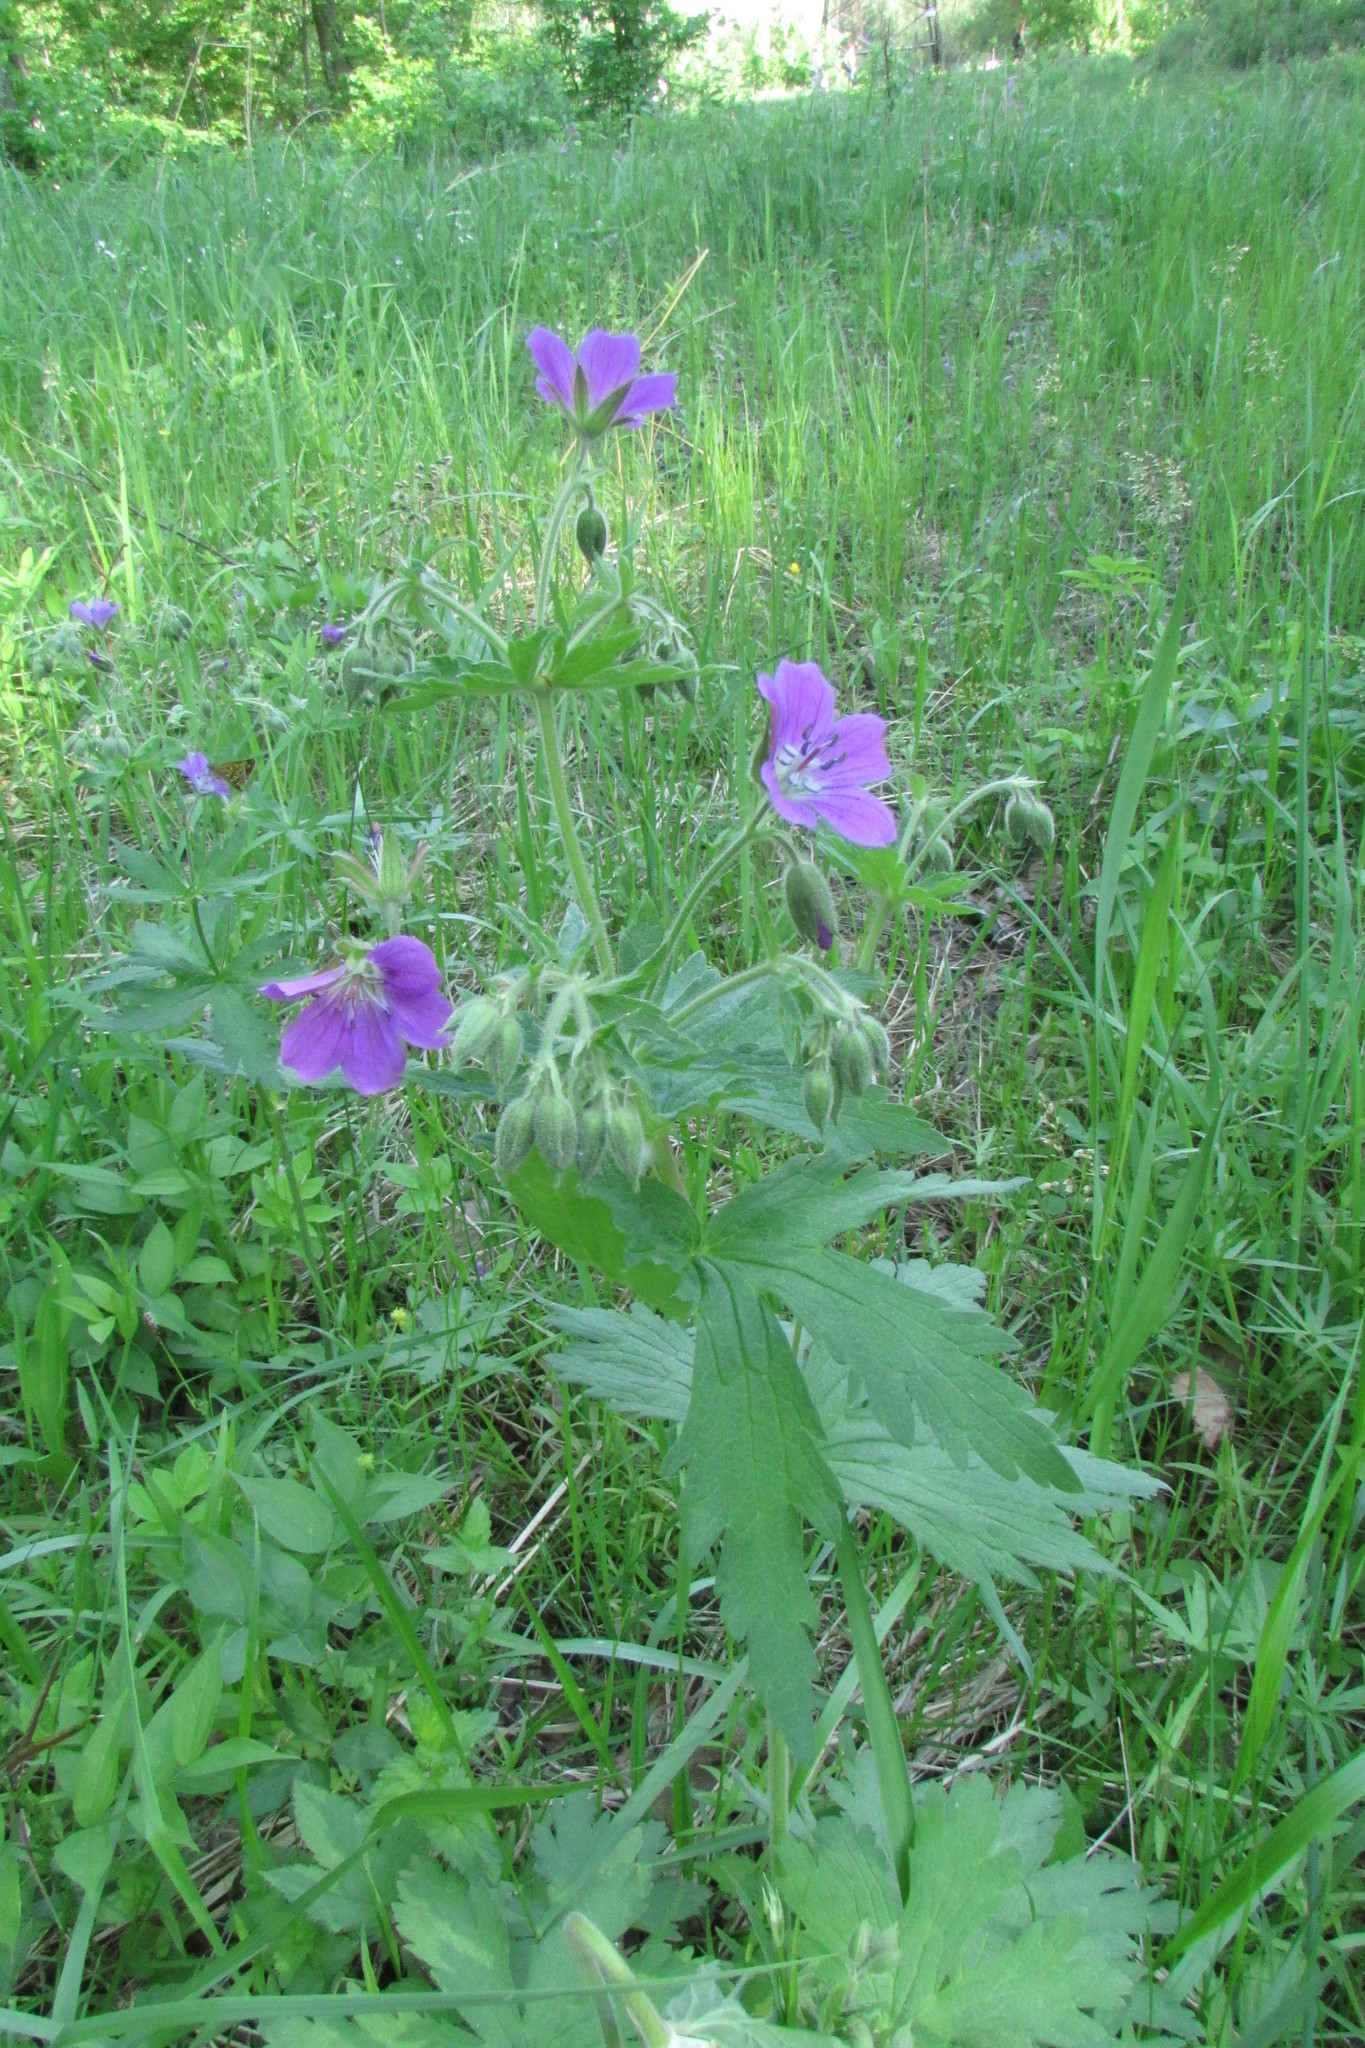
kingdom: Plantae
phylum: Tracheophyta
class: Magnoliopsida
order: Geraniales
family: Geraniaceae
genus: Geranium
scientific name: Geranium sylvaticum
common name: Wood crane's-bill
